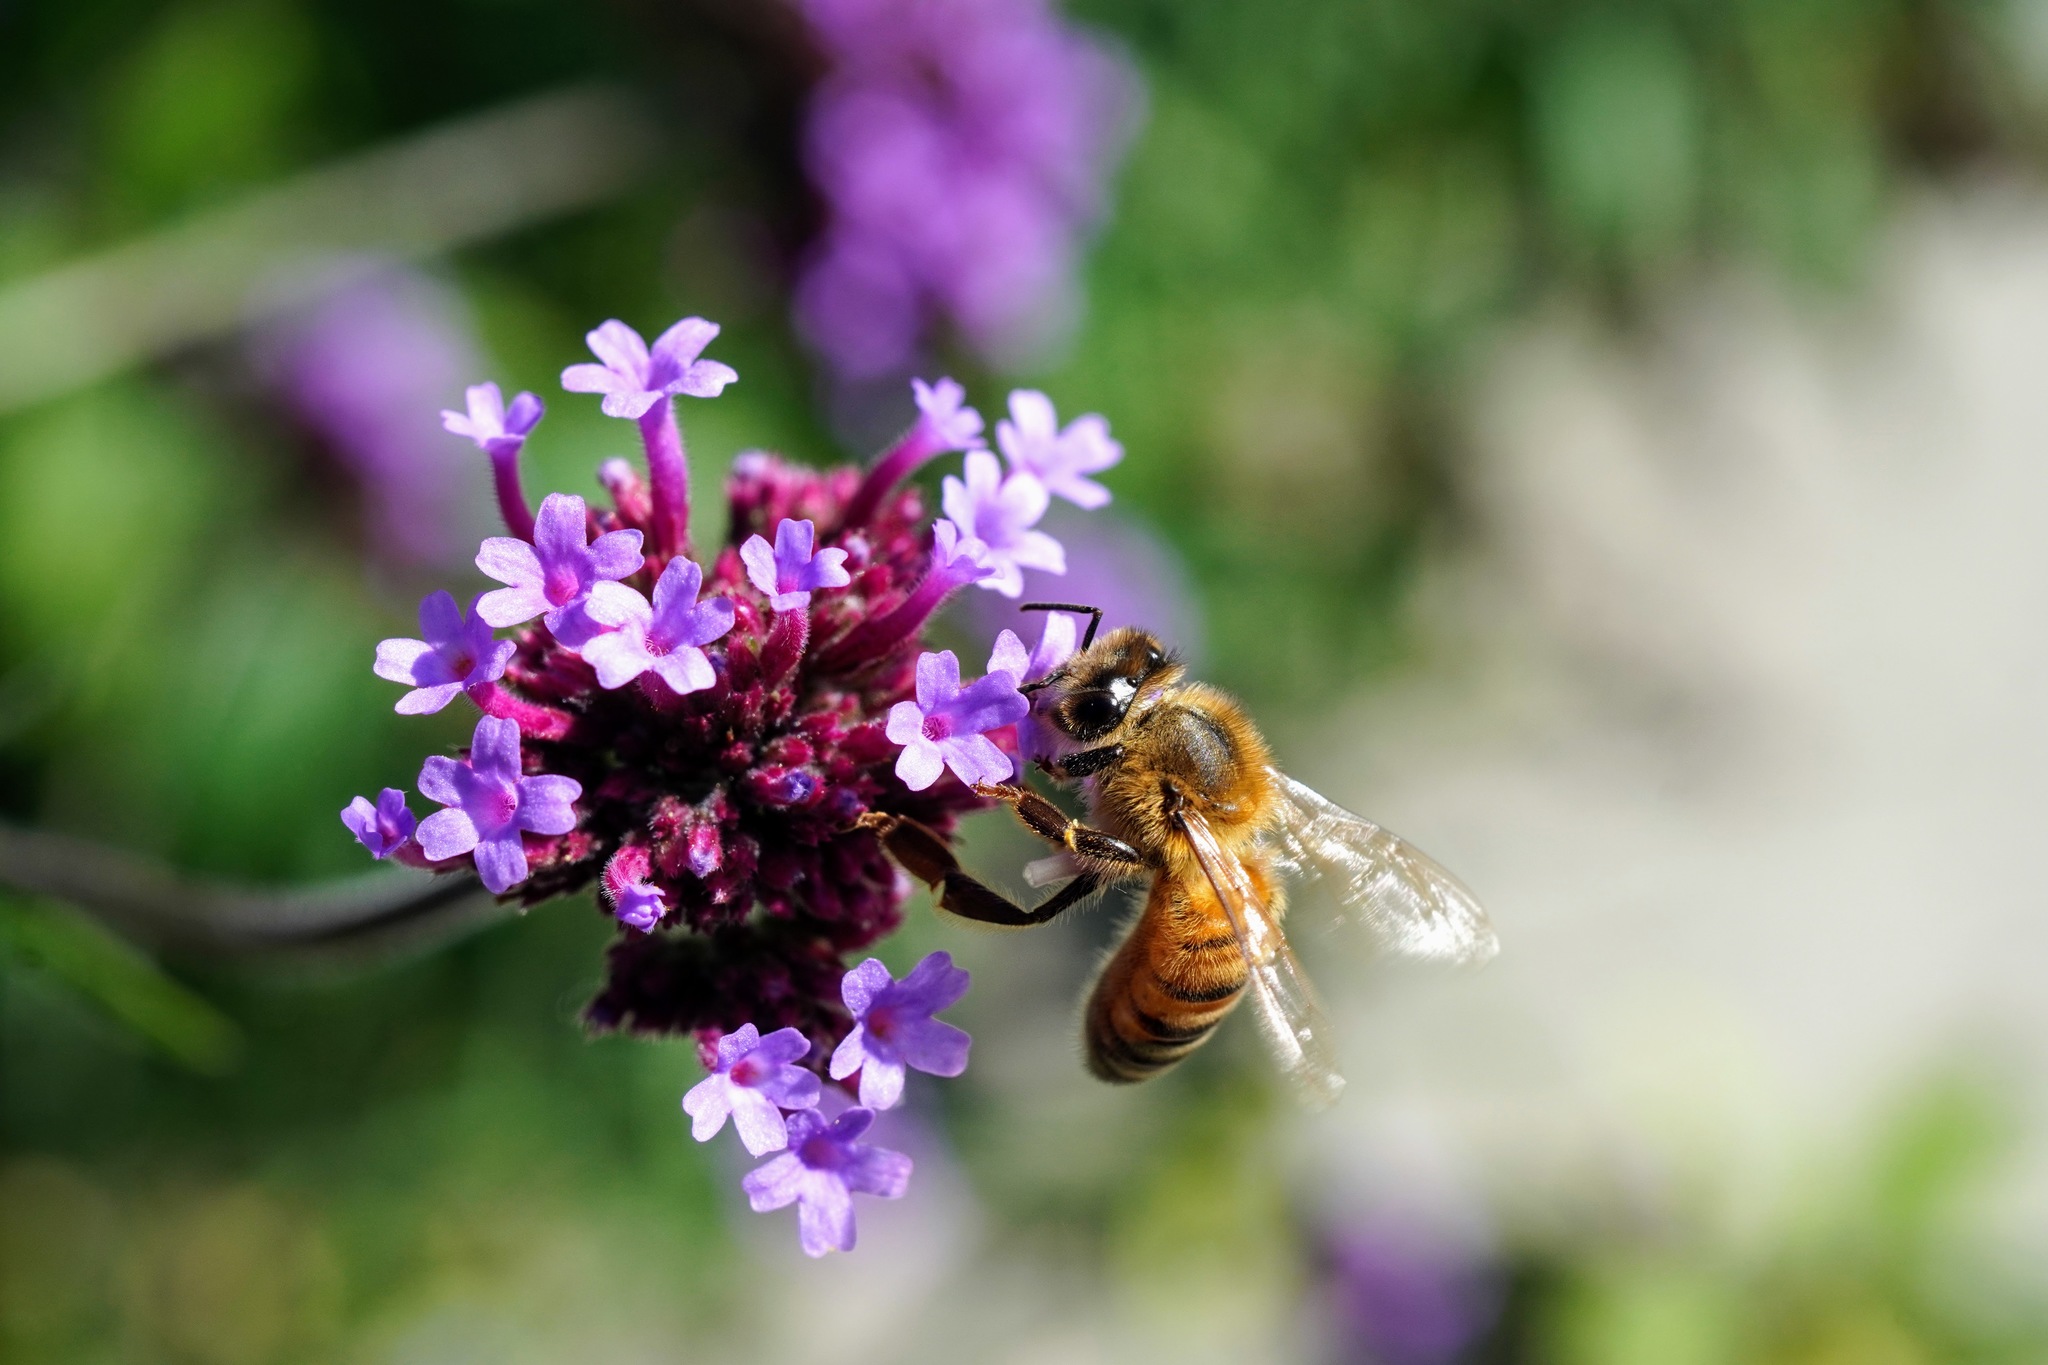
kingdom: Animalia
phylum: Arthropoda
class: Insecta
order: Hymenoptera
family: Apidae
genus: Apis
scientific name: Apis mellifera
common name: Honey bee
